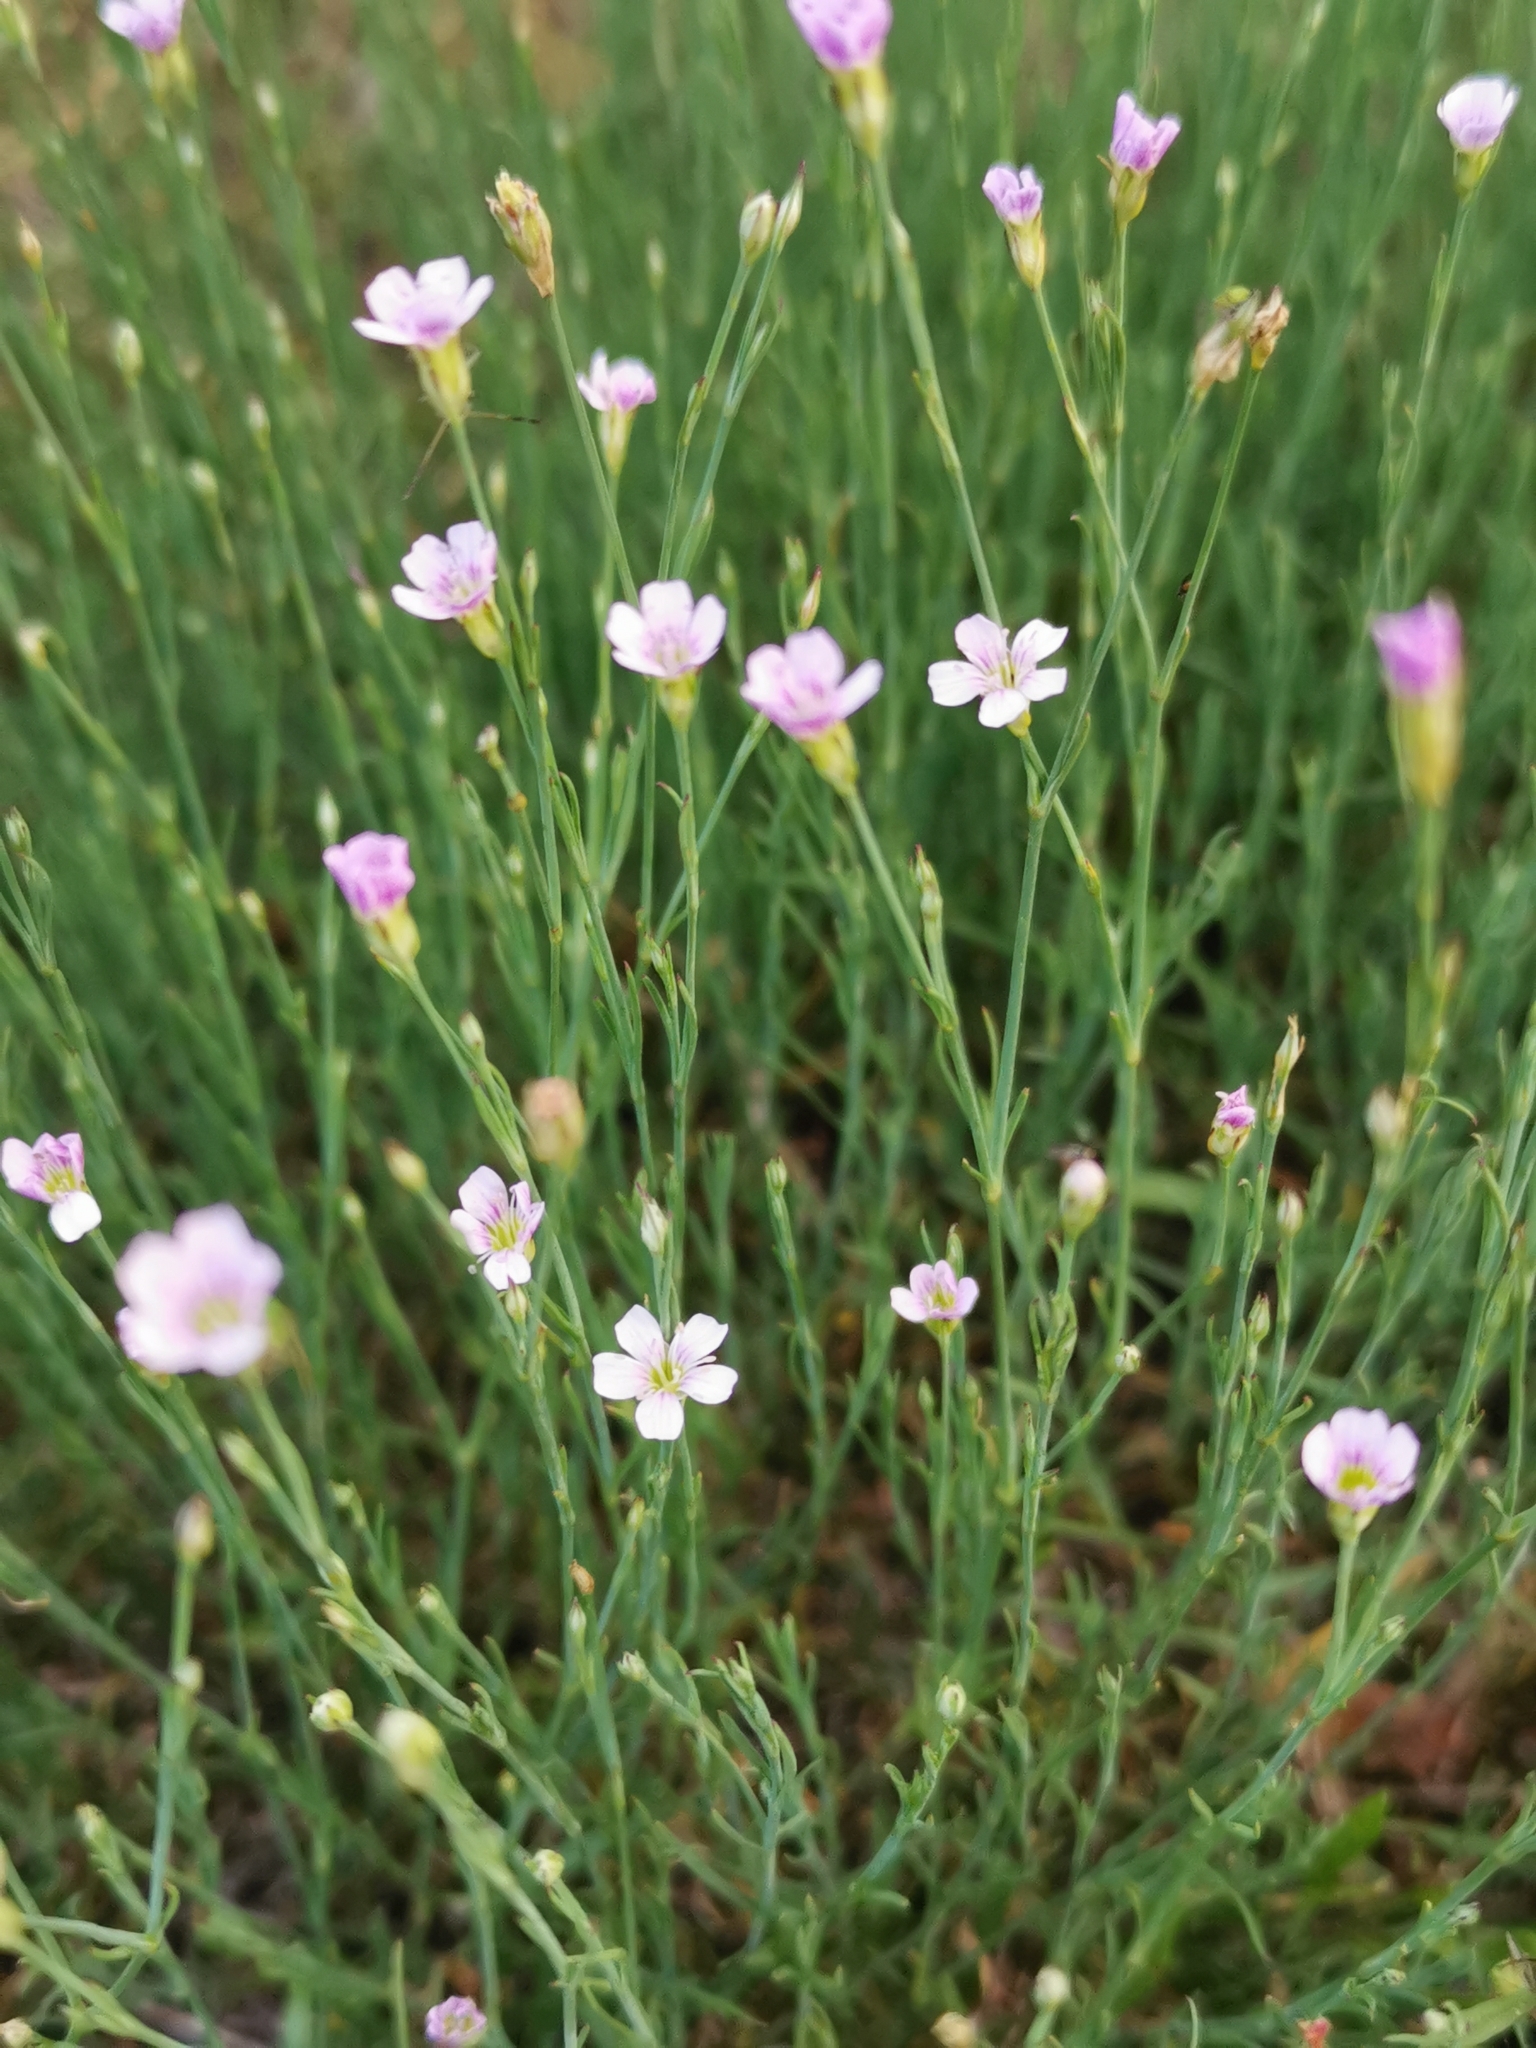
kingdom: Plantae
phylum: Tracheophyta
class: Magnoliopsida
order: Caryophyllales
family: Caryophyllaceae
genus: Petrorhagia
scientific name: Petrorhagia saxifraga
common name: Tunicflower
